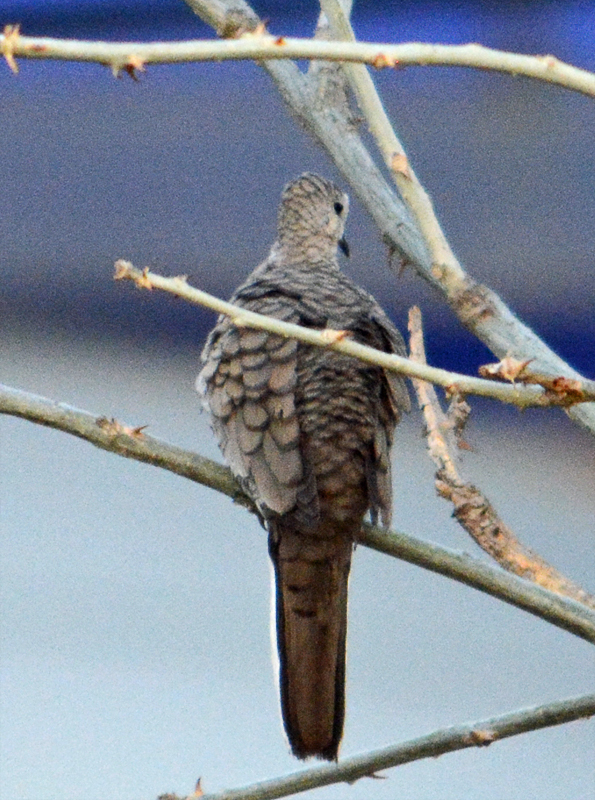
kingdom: Animalia
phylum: Chordata
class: Aves
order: Columbiformes
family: Columbidae
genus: Columbina
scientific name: Columbina inca
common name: Inca dove
